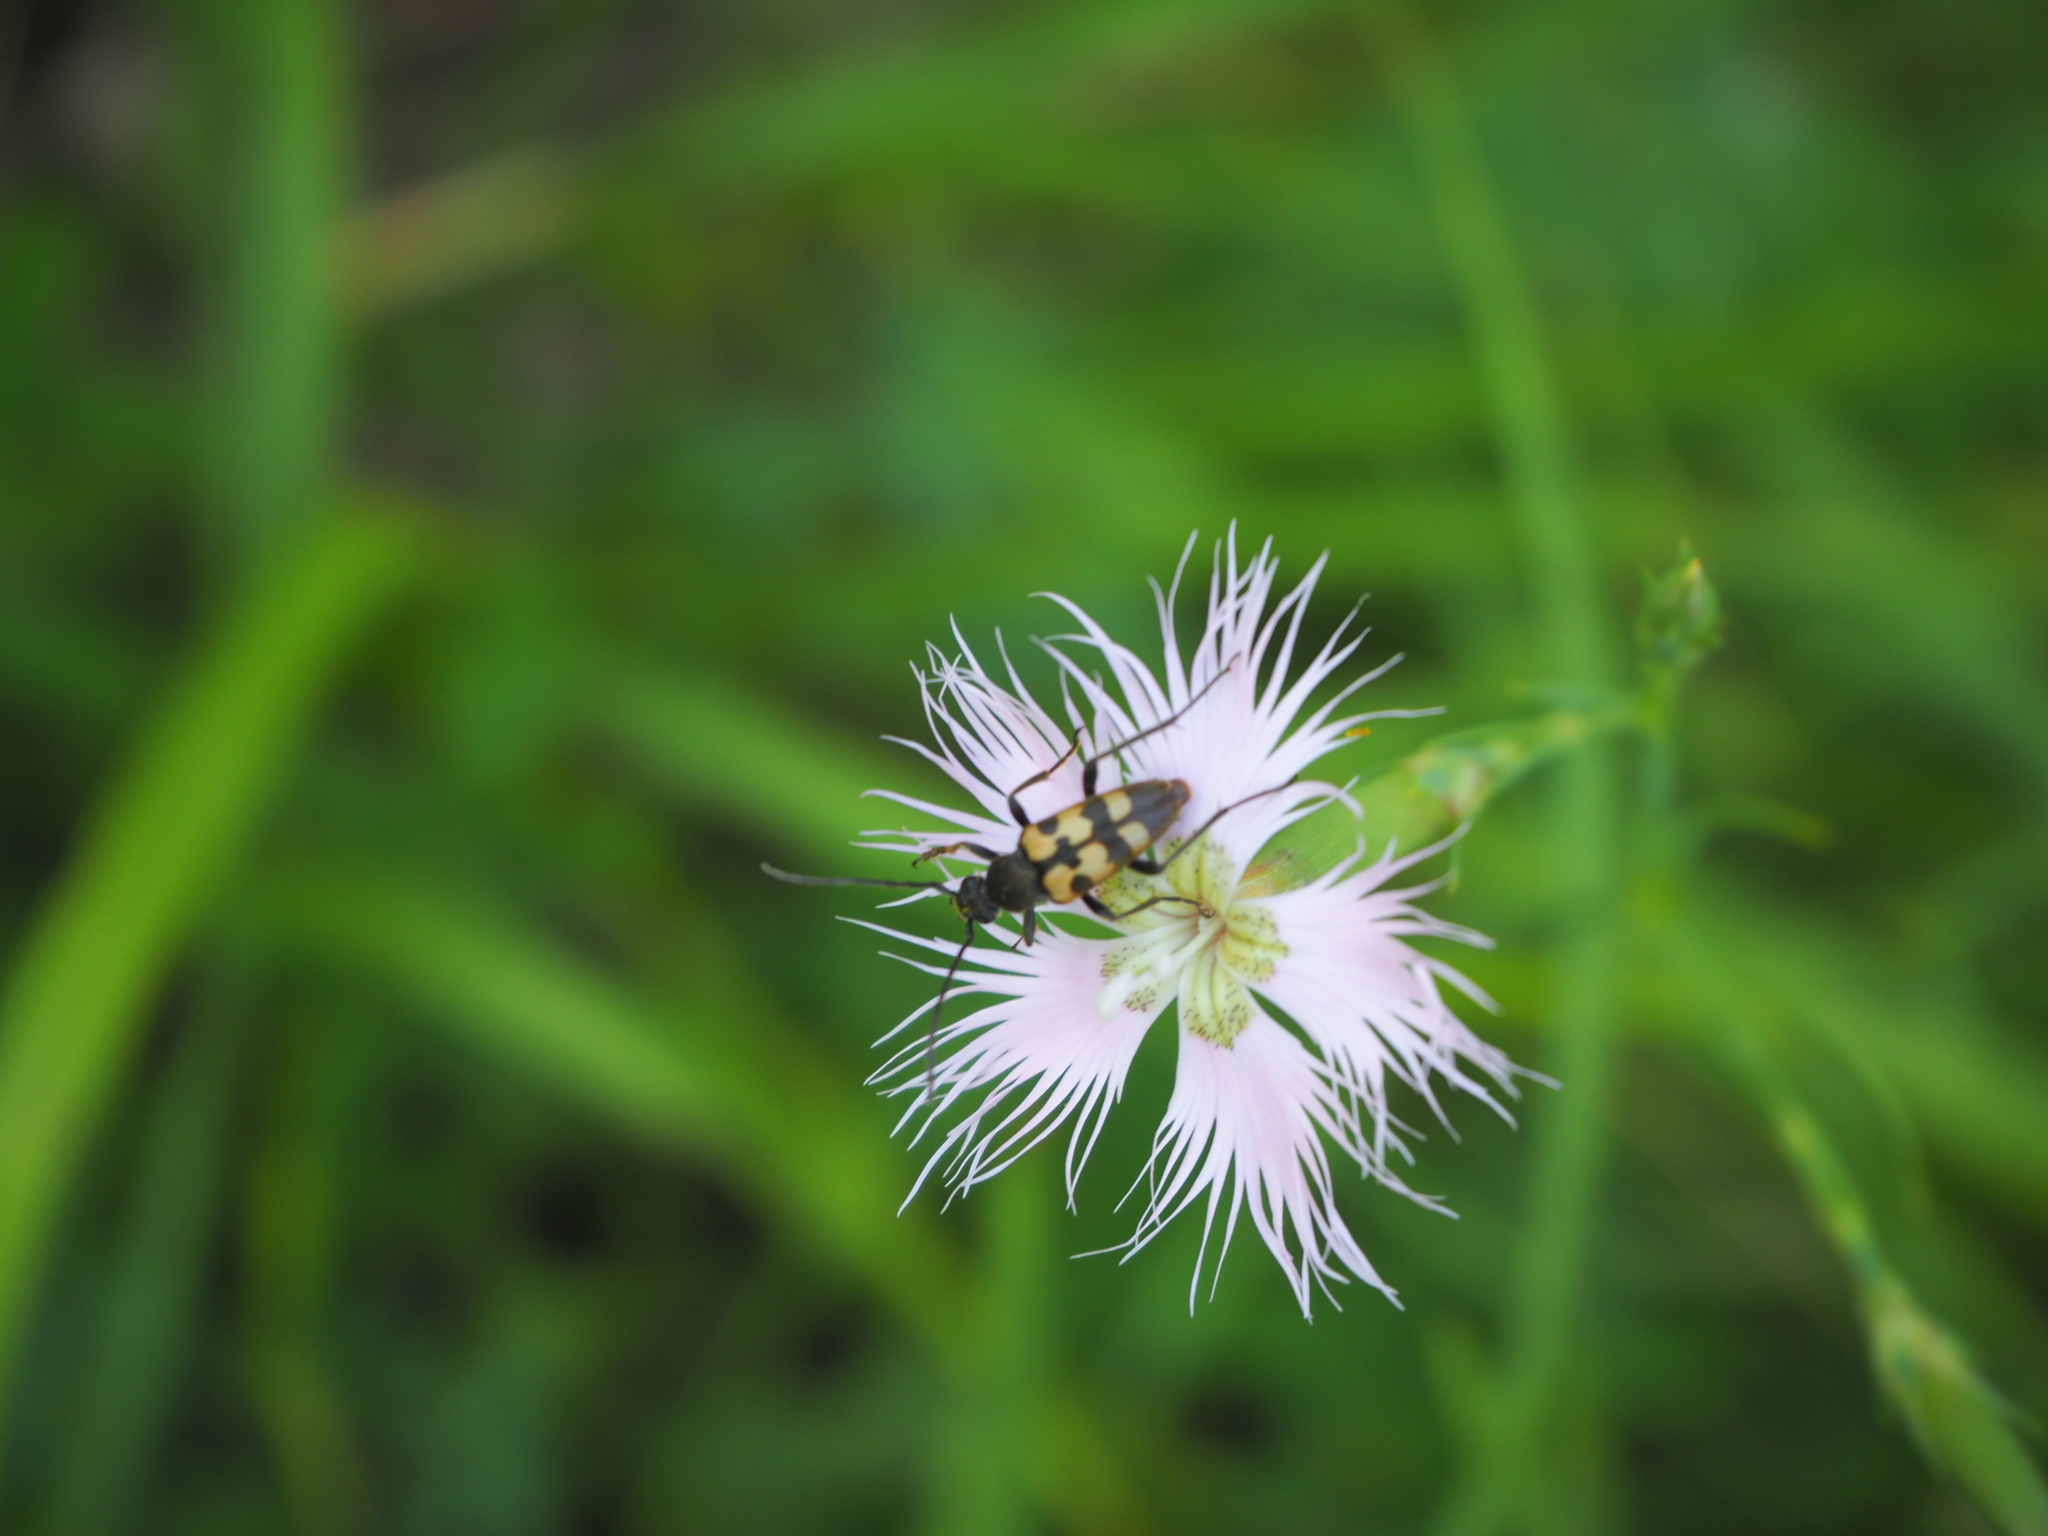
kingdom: Animalia
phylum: Arthropoda
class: Insecta
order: Coleoptera
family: Cerambycidae
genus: Pachytodes
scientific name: Pachytodes
